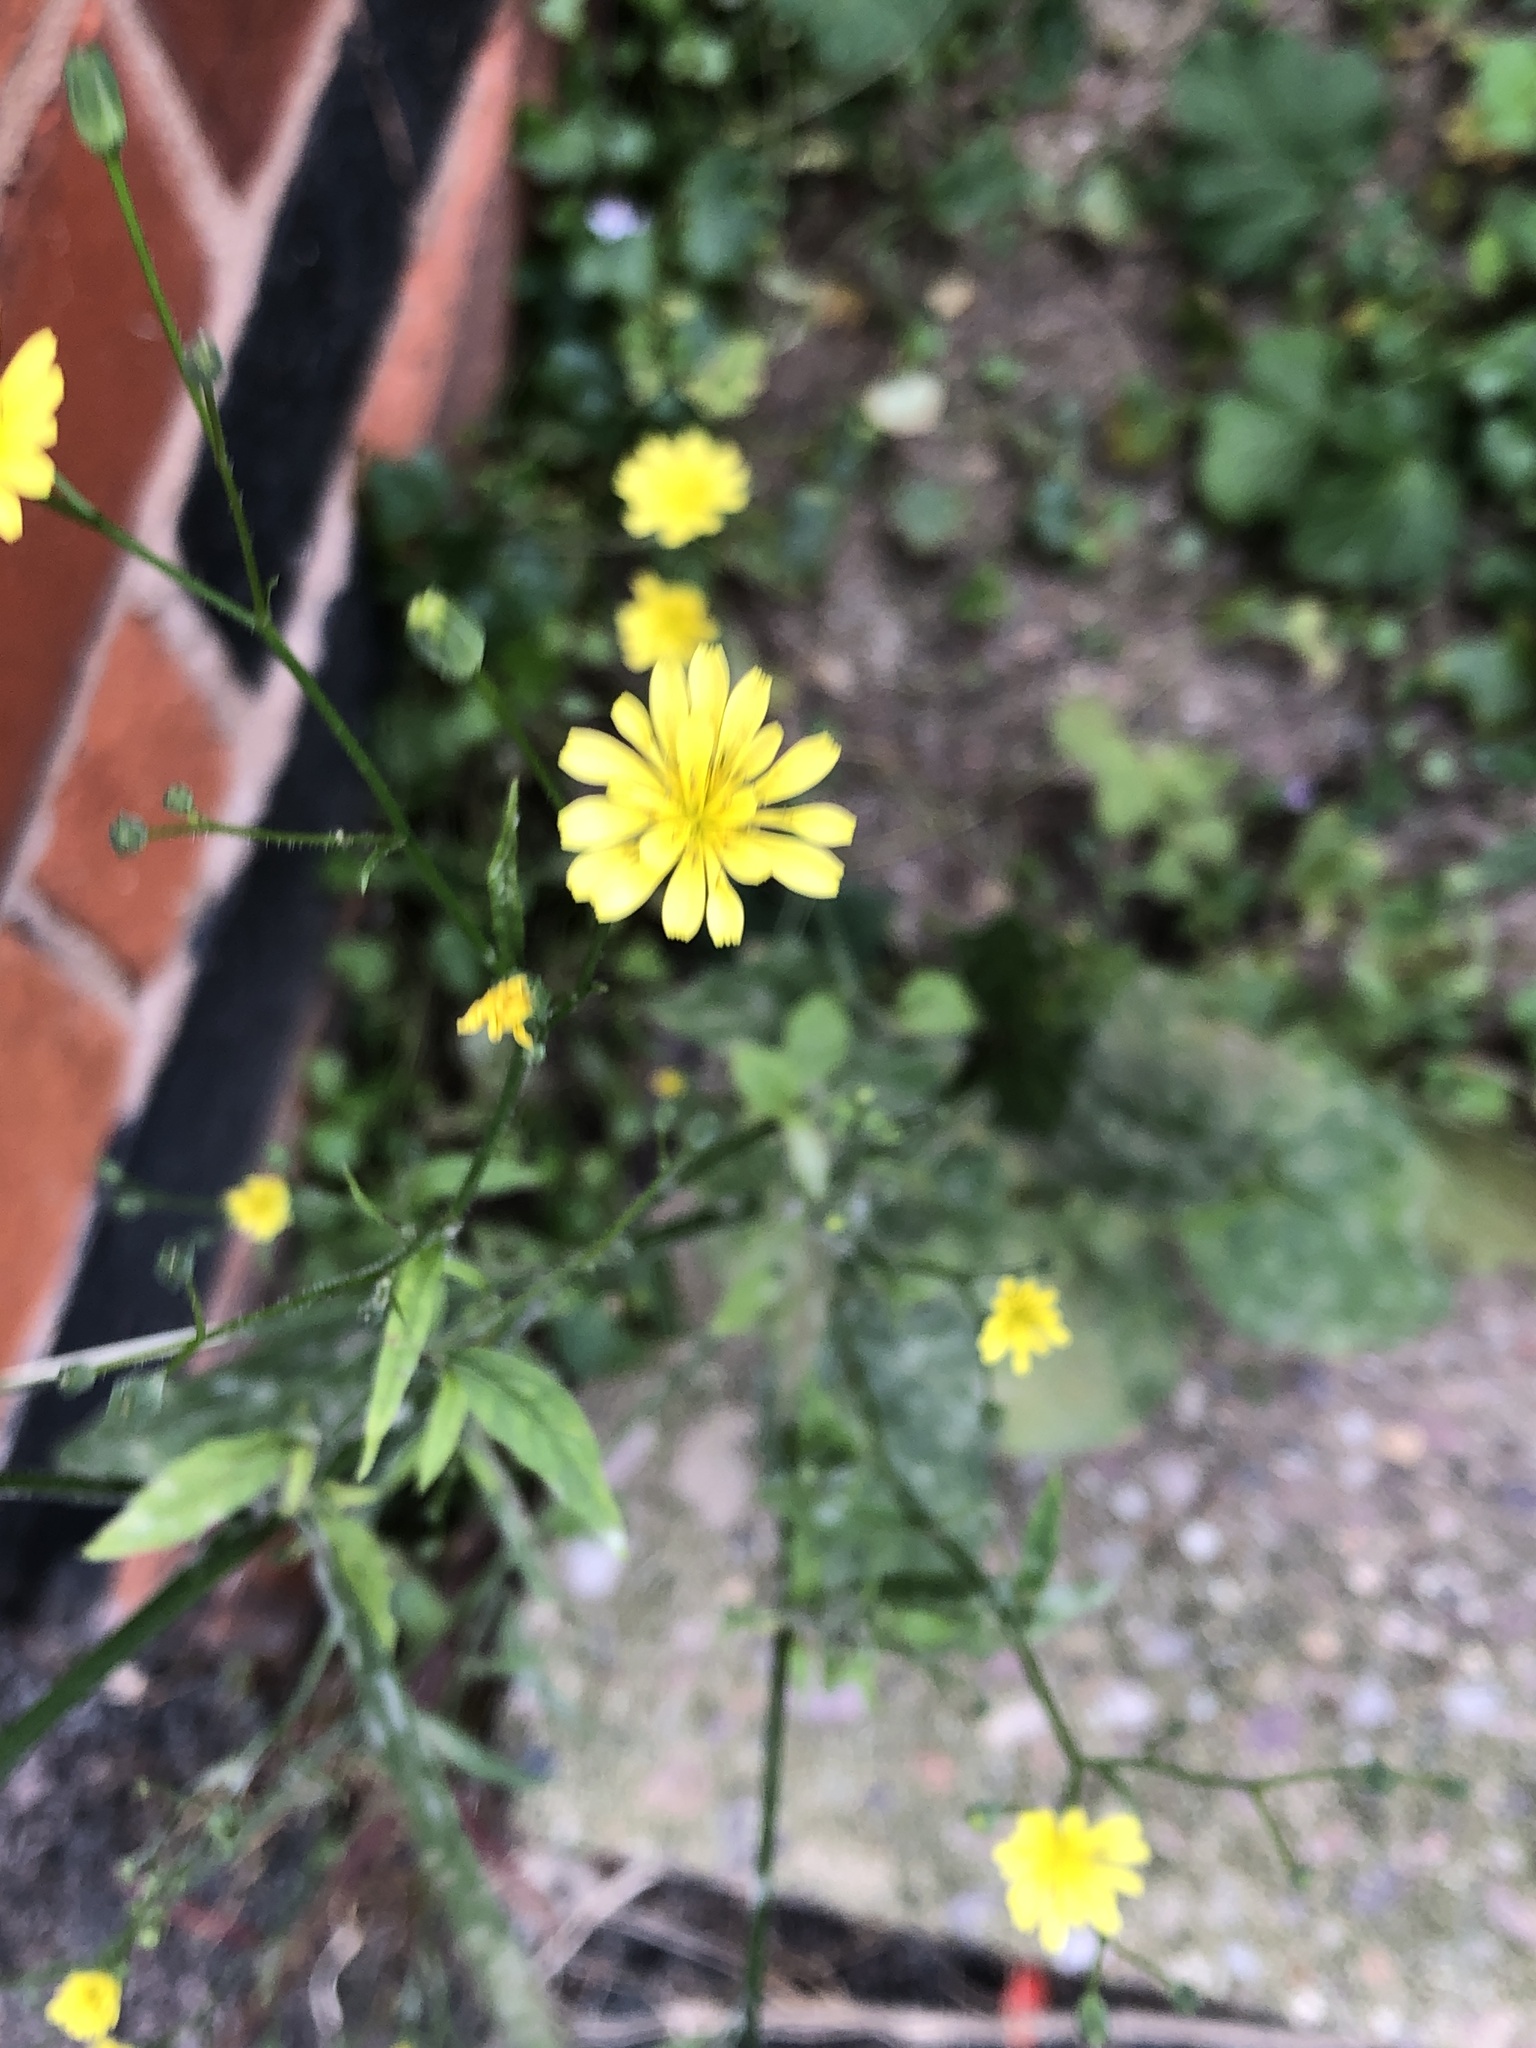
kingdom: Plantae
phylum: Tracheophyta
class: Magnoliopsida
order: Asterales
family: Asteraceae
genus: Lapsana
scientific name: Lapsana communis
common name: Nipplewort
